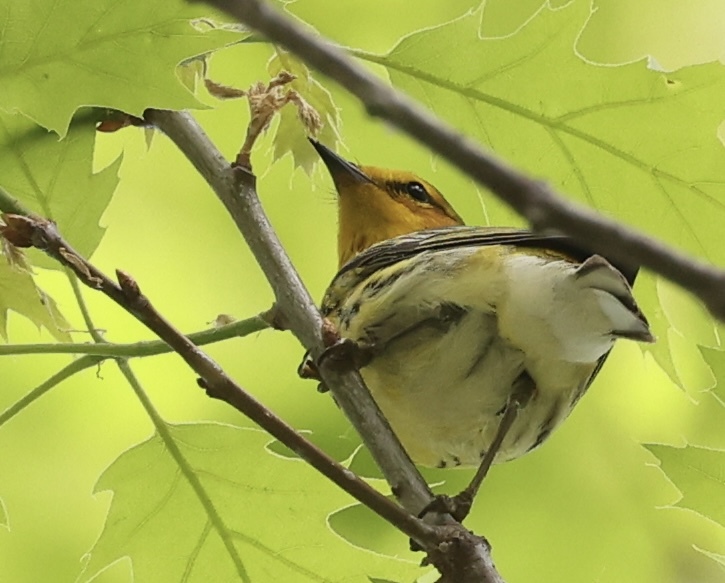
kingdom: Animalia
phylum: Chordata
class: Aves
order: Passeriformes
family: Parulidae
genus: Setophaga
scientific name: Setophaga tigrina
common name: Cape may warbler
